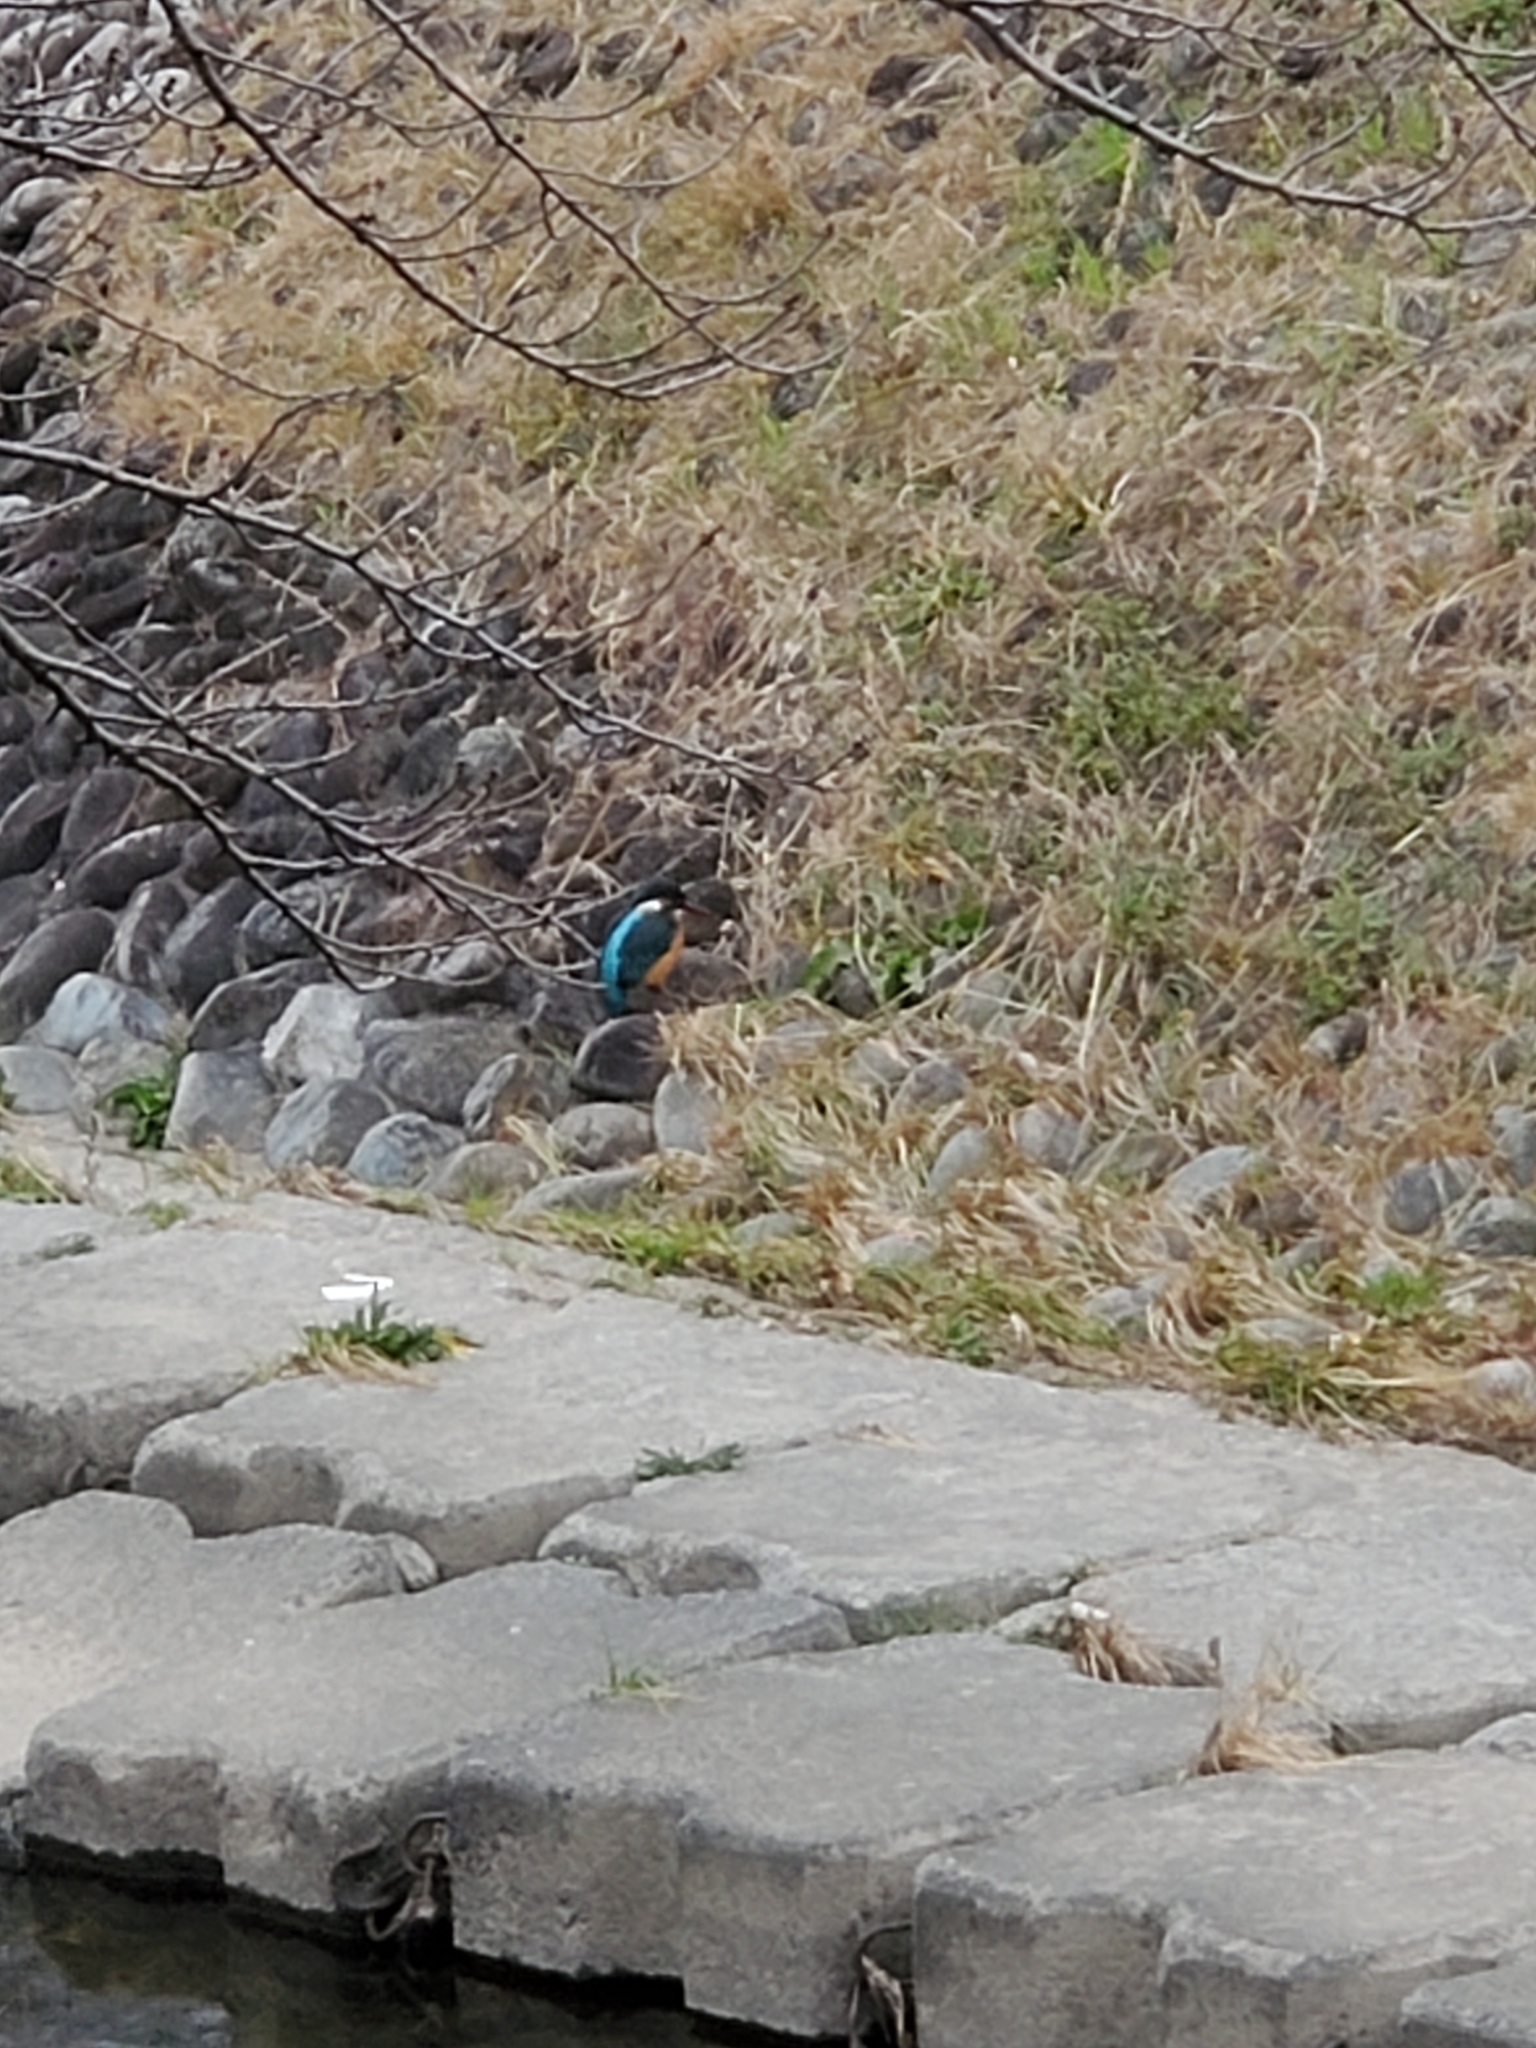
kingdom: Animalia
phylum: Chordata
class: Aves
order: Coraciiformes
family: Alcedinidae
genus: Alcedo
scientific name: Alcedo atthis
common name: Common kingfisher
